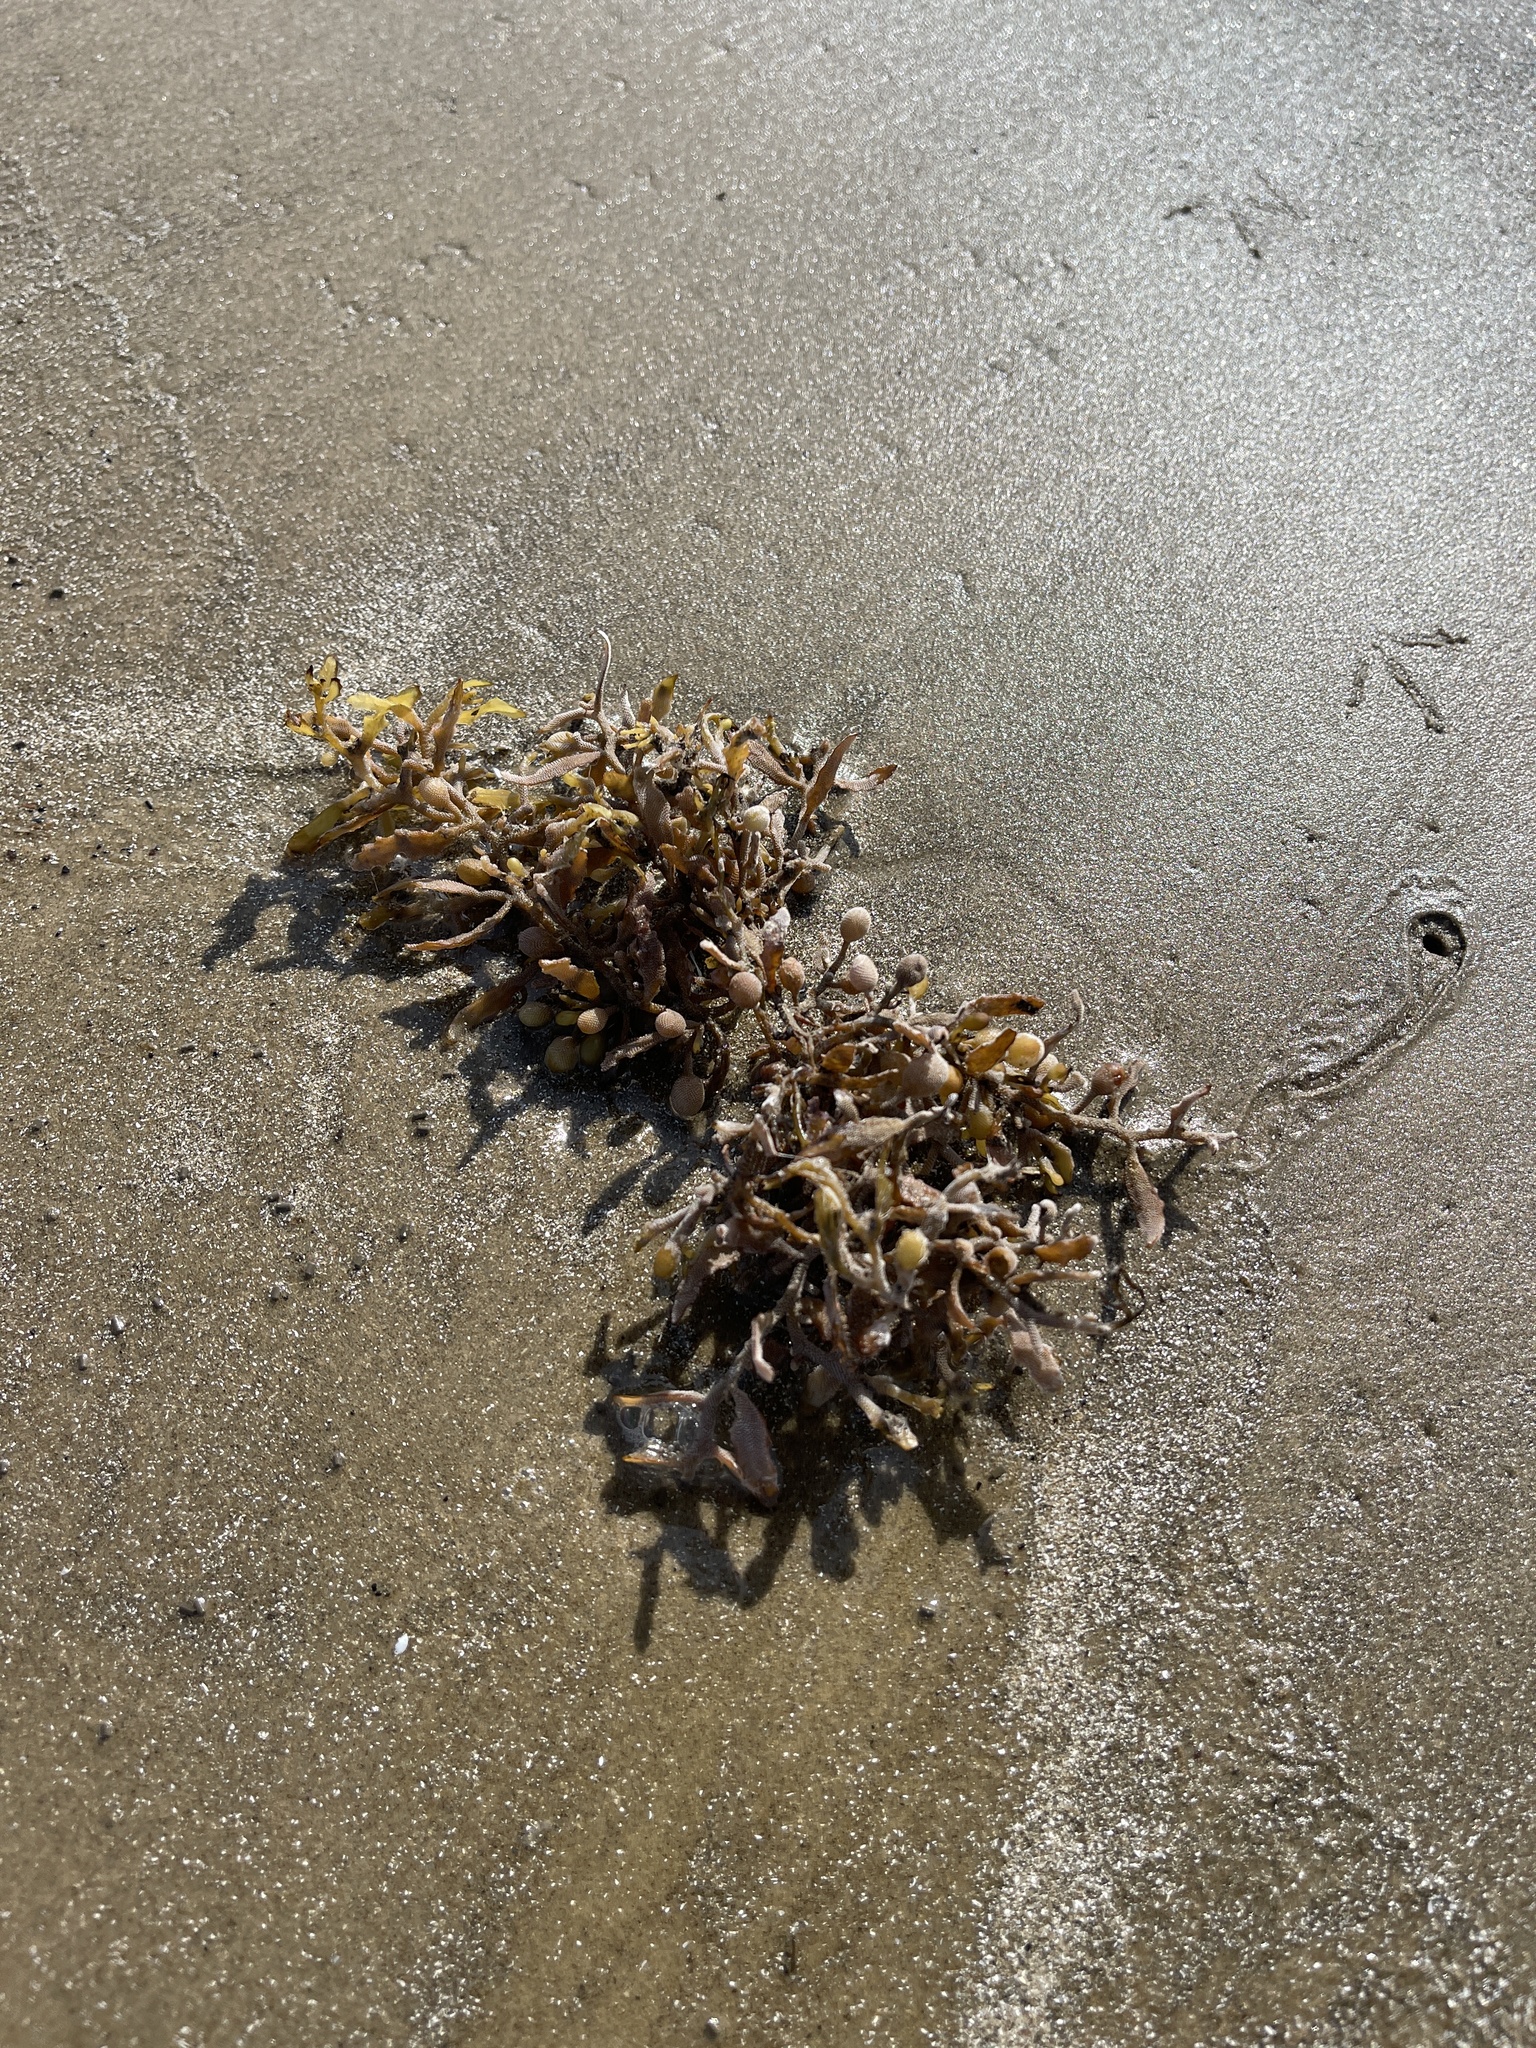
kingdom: Chromista
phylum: Ochrophyta
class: Phaeophyceae
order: Fucales
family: Sargassaceae
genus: Sargassum
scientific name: Sargassum fluitans
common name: Sargassum seaweed
